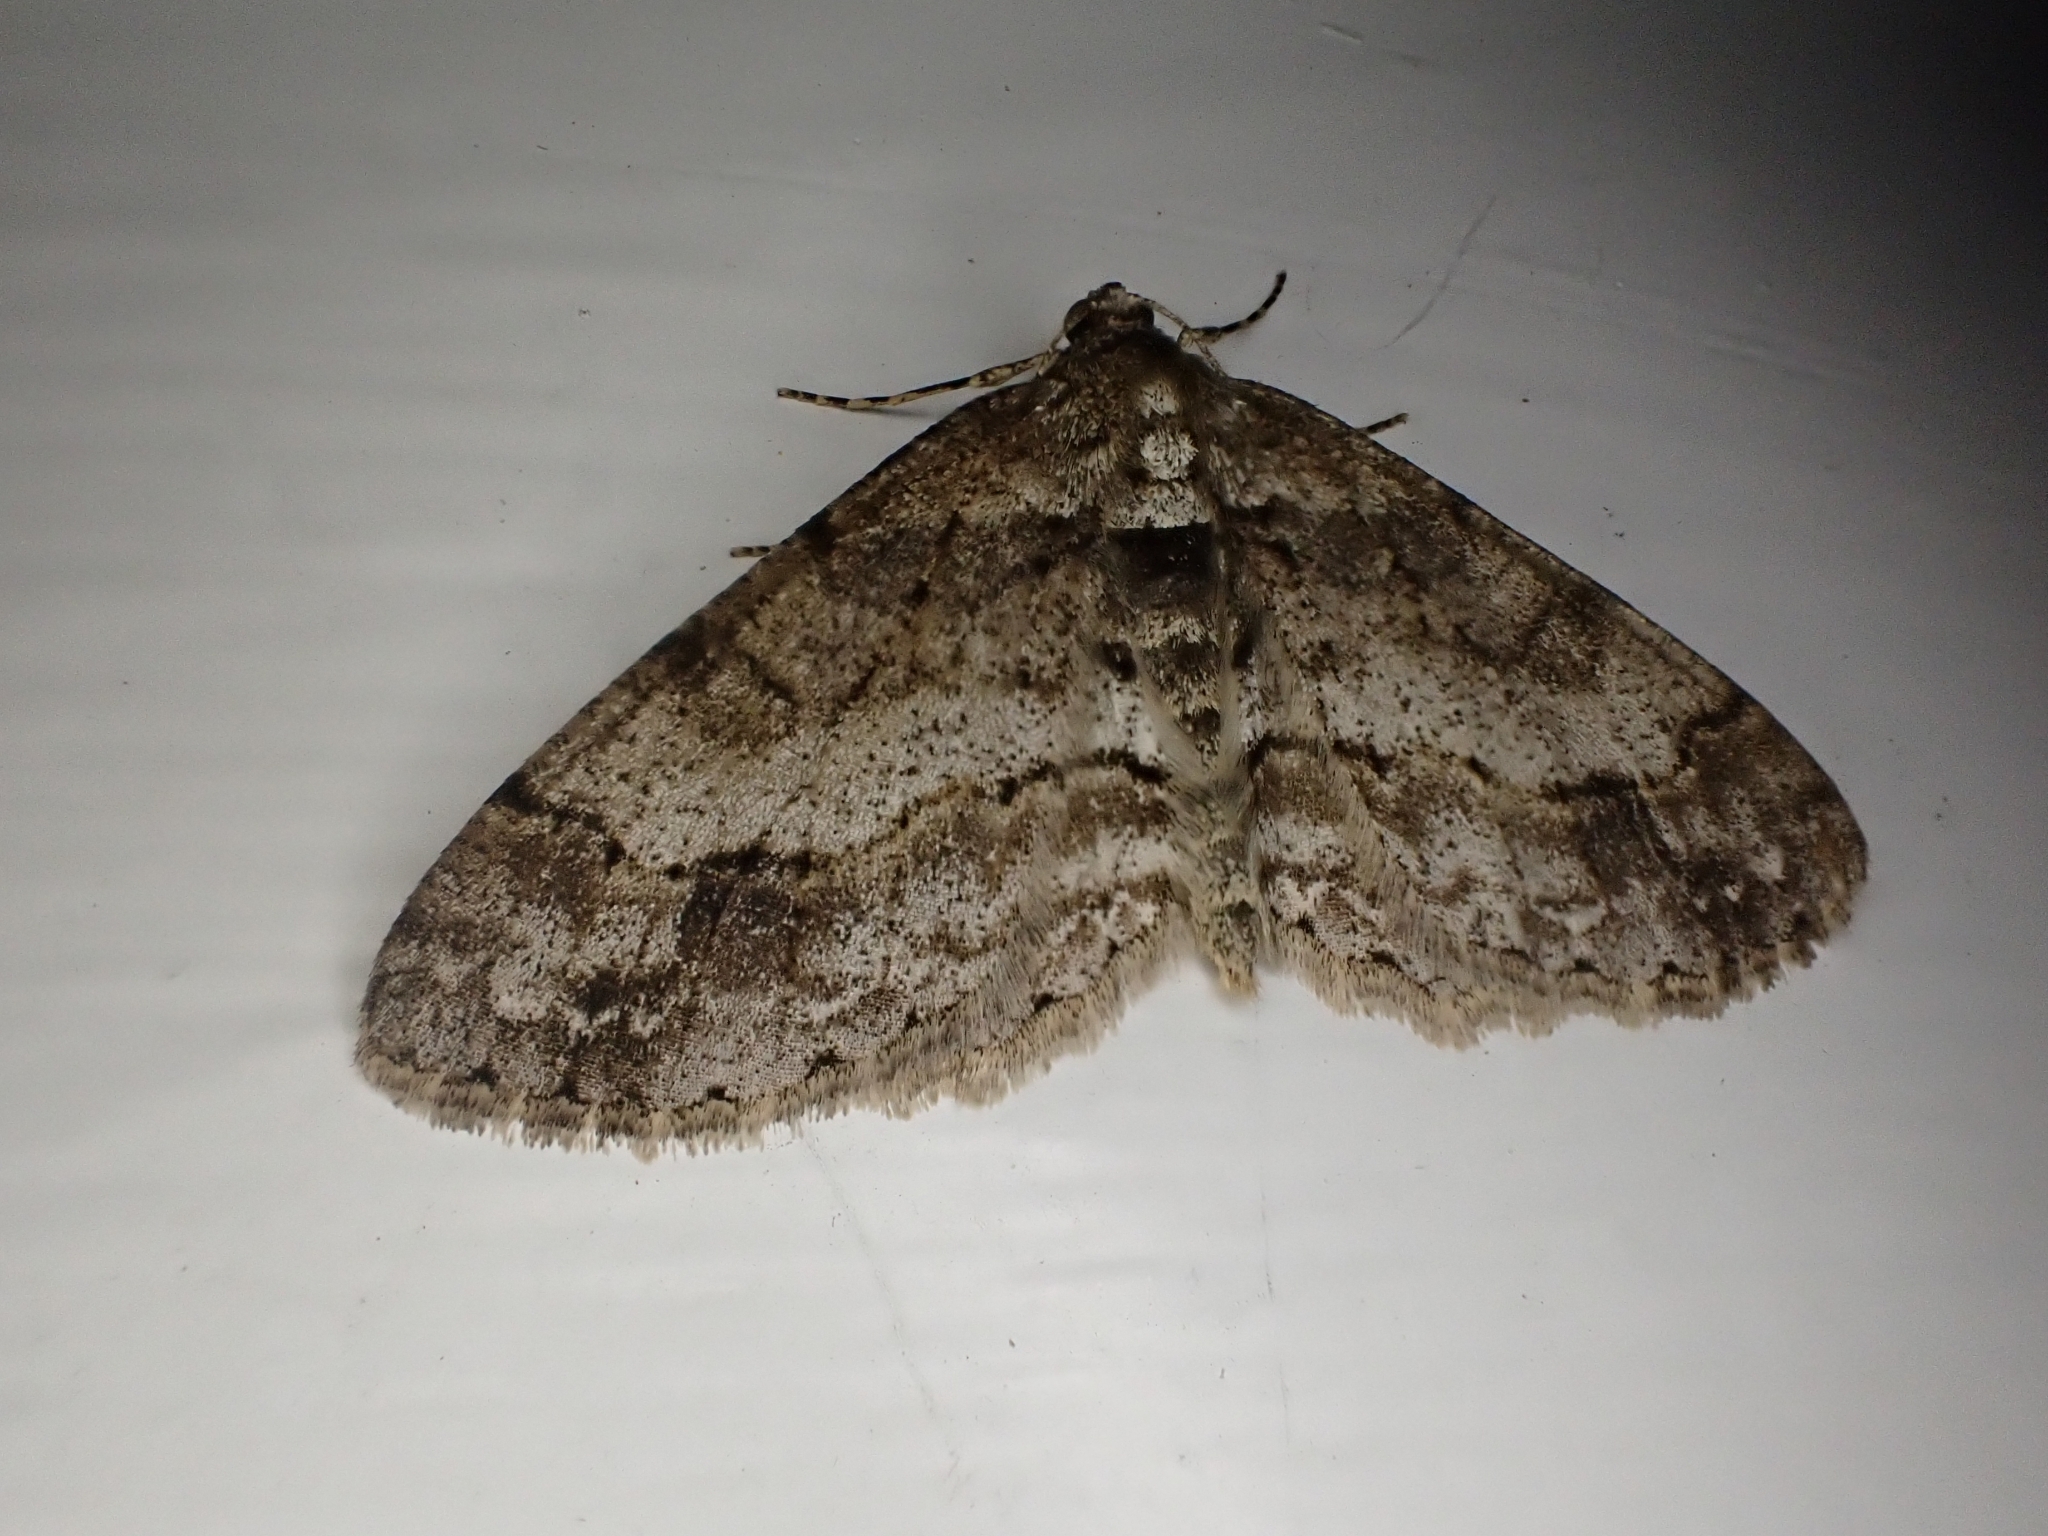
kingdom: Animalia
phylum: Arthropoda
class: Insecta
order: Lepidoptera
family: Geometridae
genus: Paradarisa
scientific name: Paradarisa consonaria
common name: Square spot
